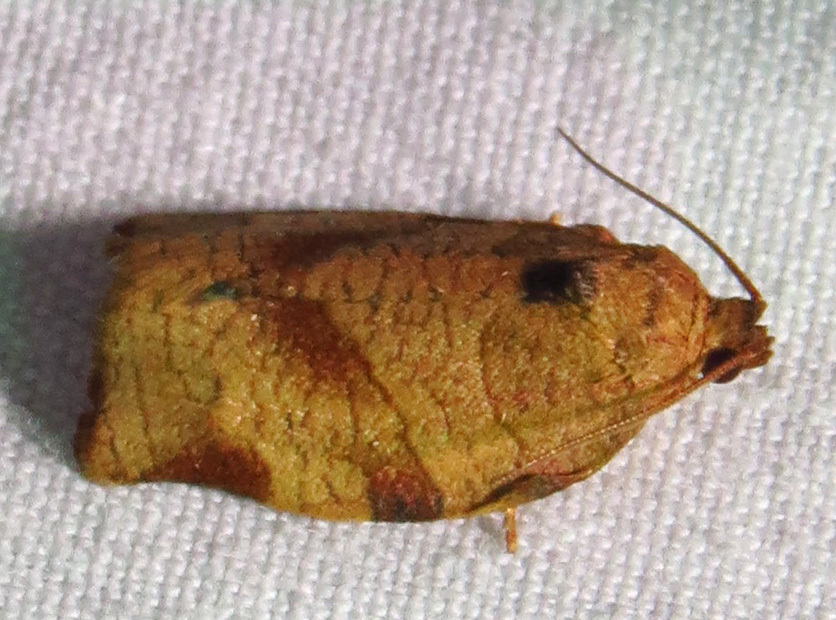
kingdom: Animalia
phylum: Arthropoda
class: Insecta
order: Lepidoptera
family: Tortricidae
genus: Choristoneura
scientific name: Choristoneura rosaceana
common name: Oblique-banded leafroller moth
